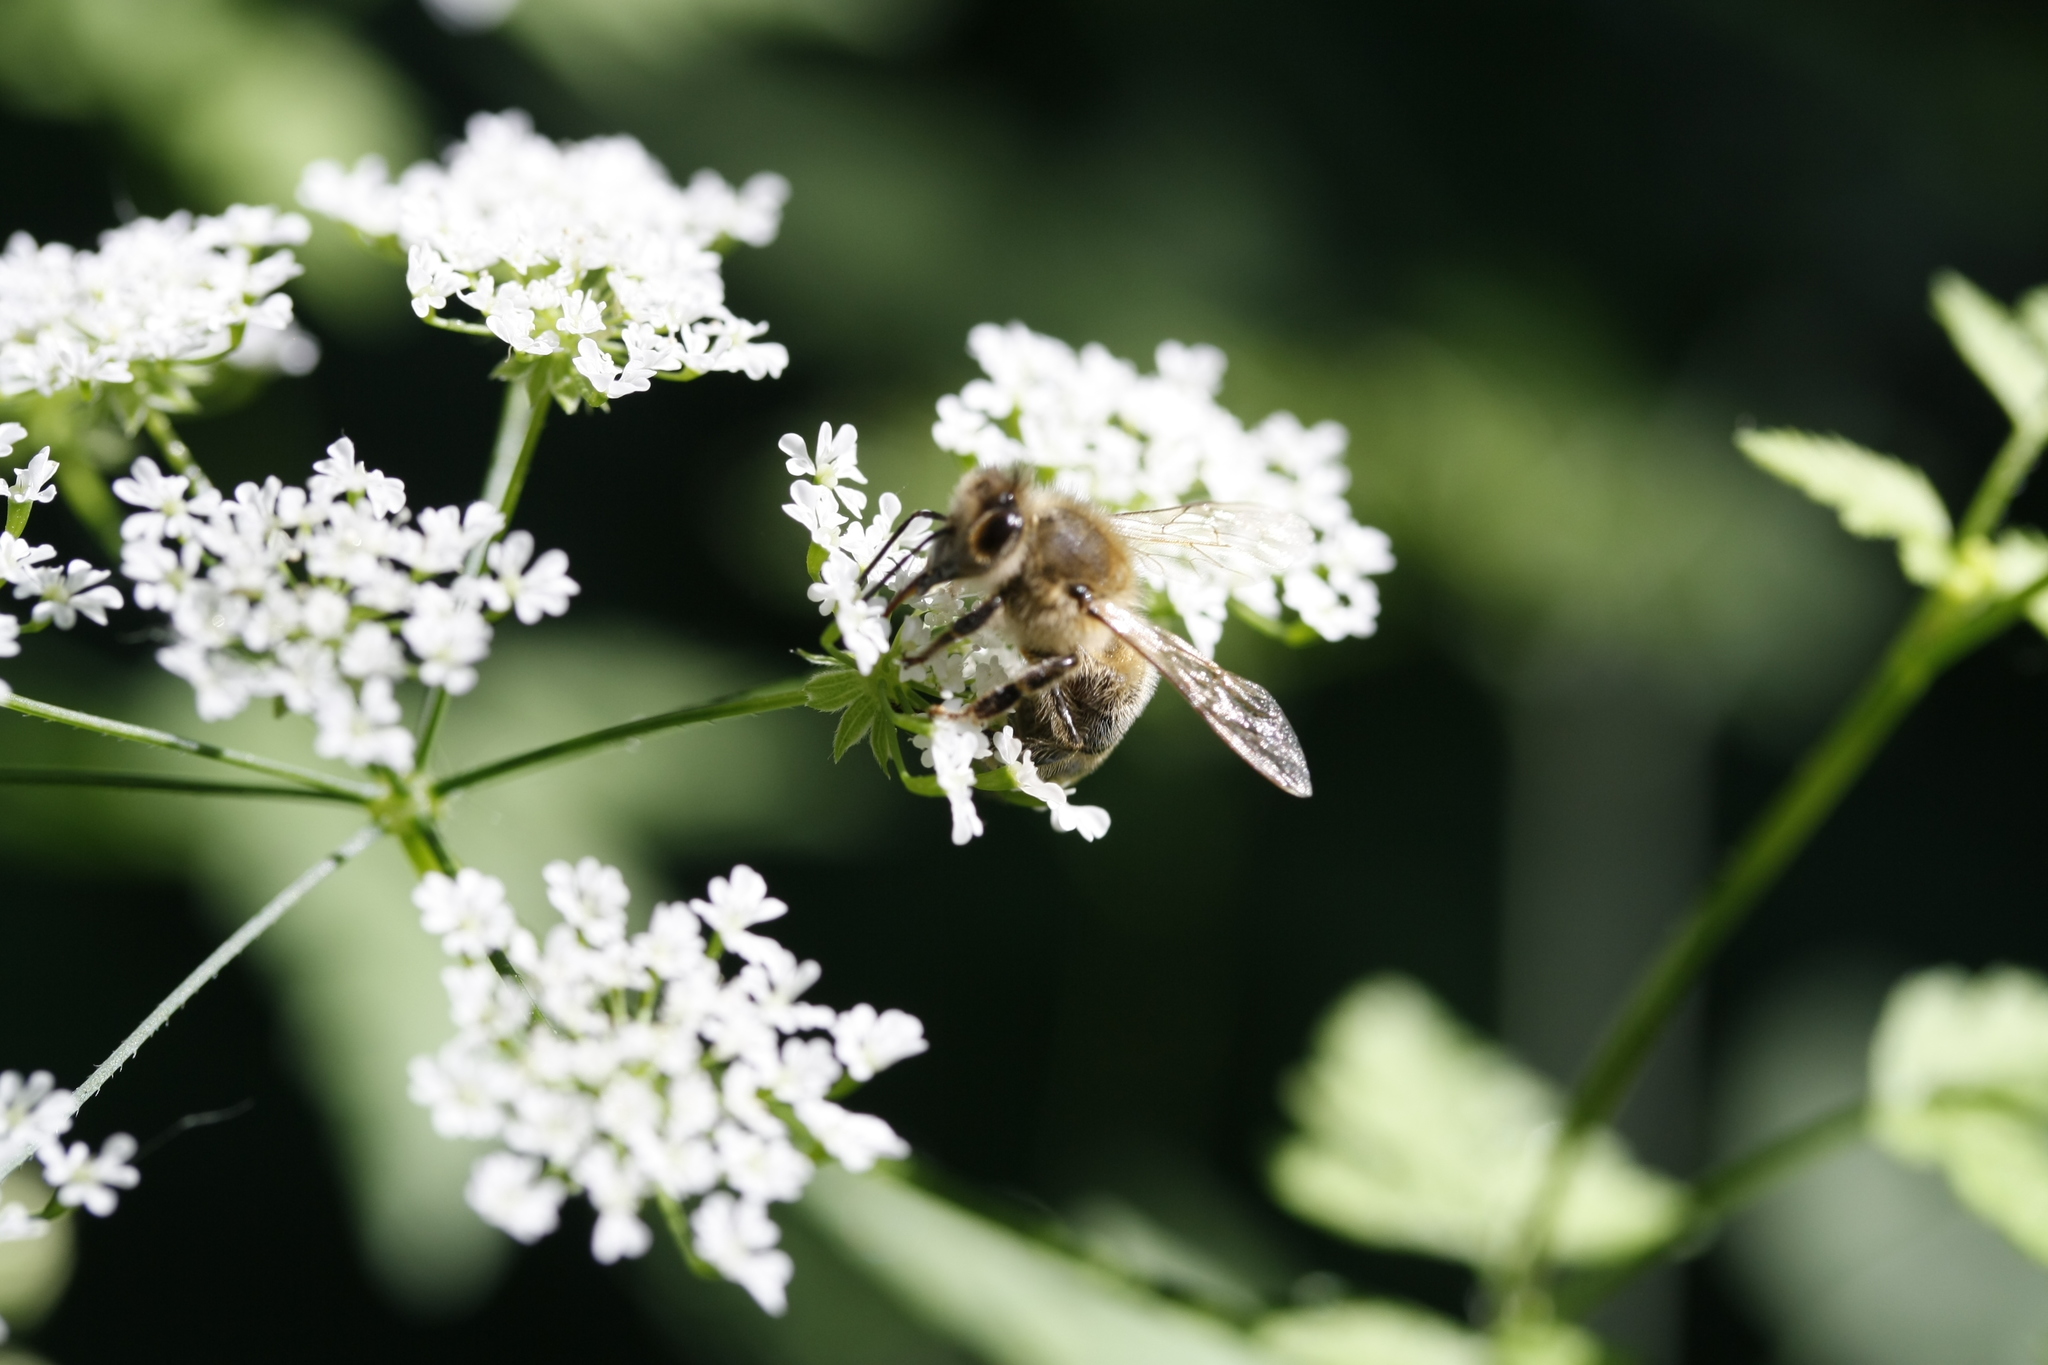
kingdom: Animalia
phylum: Arthropoda
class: Insecta
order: Hymenoptera
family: Apidae
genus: Apis
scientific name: Apis mellifera
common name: Honey bee
